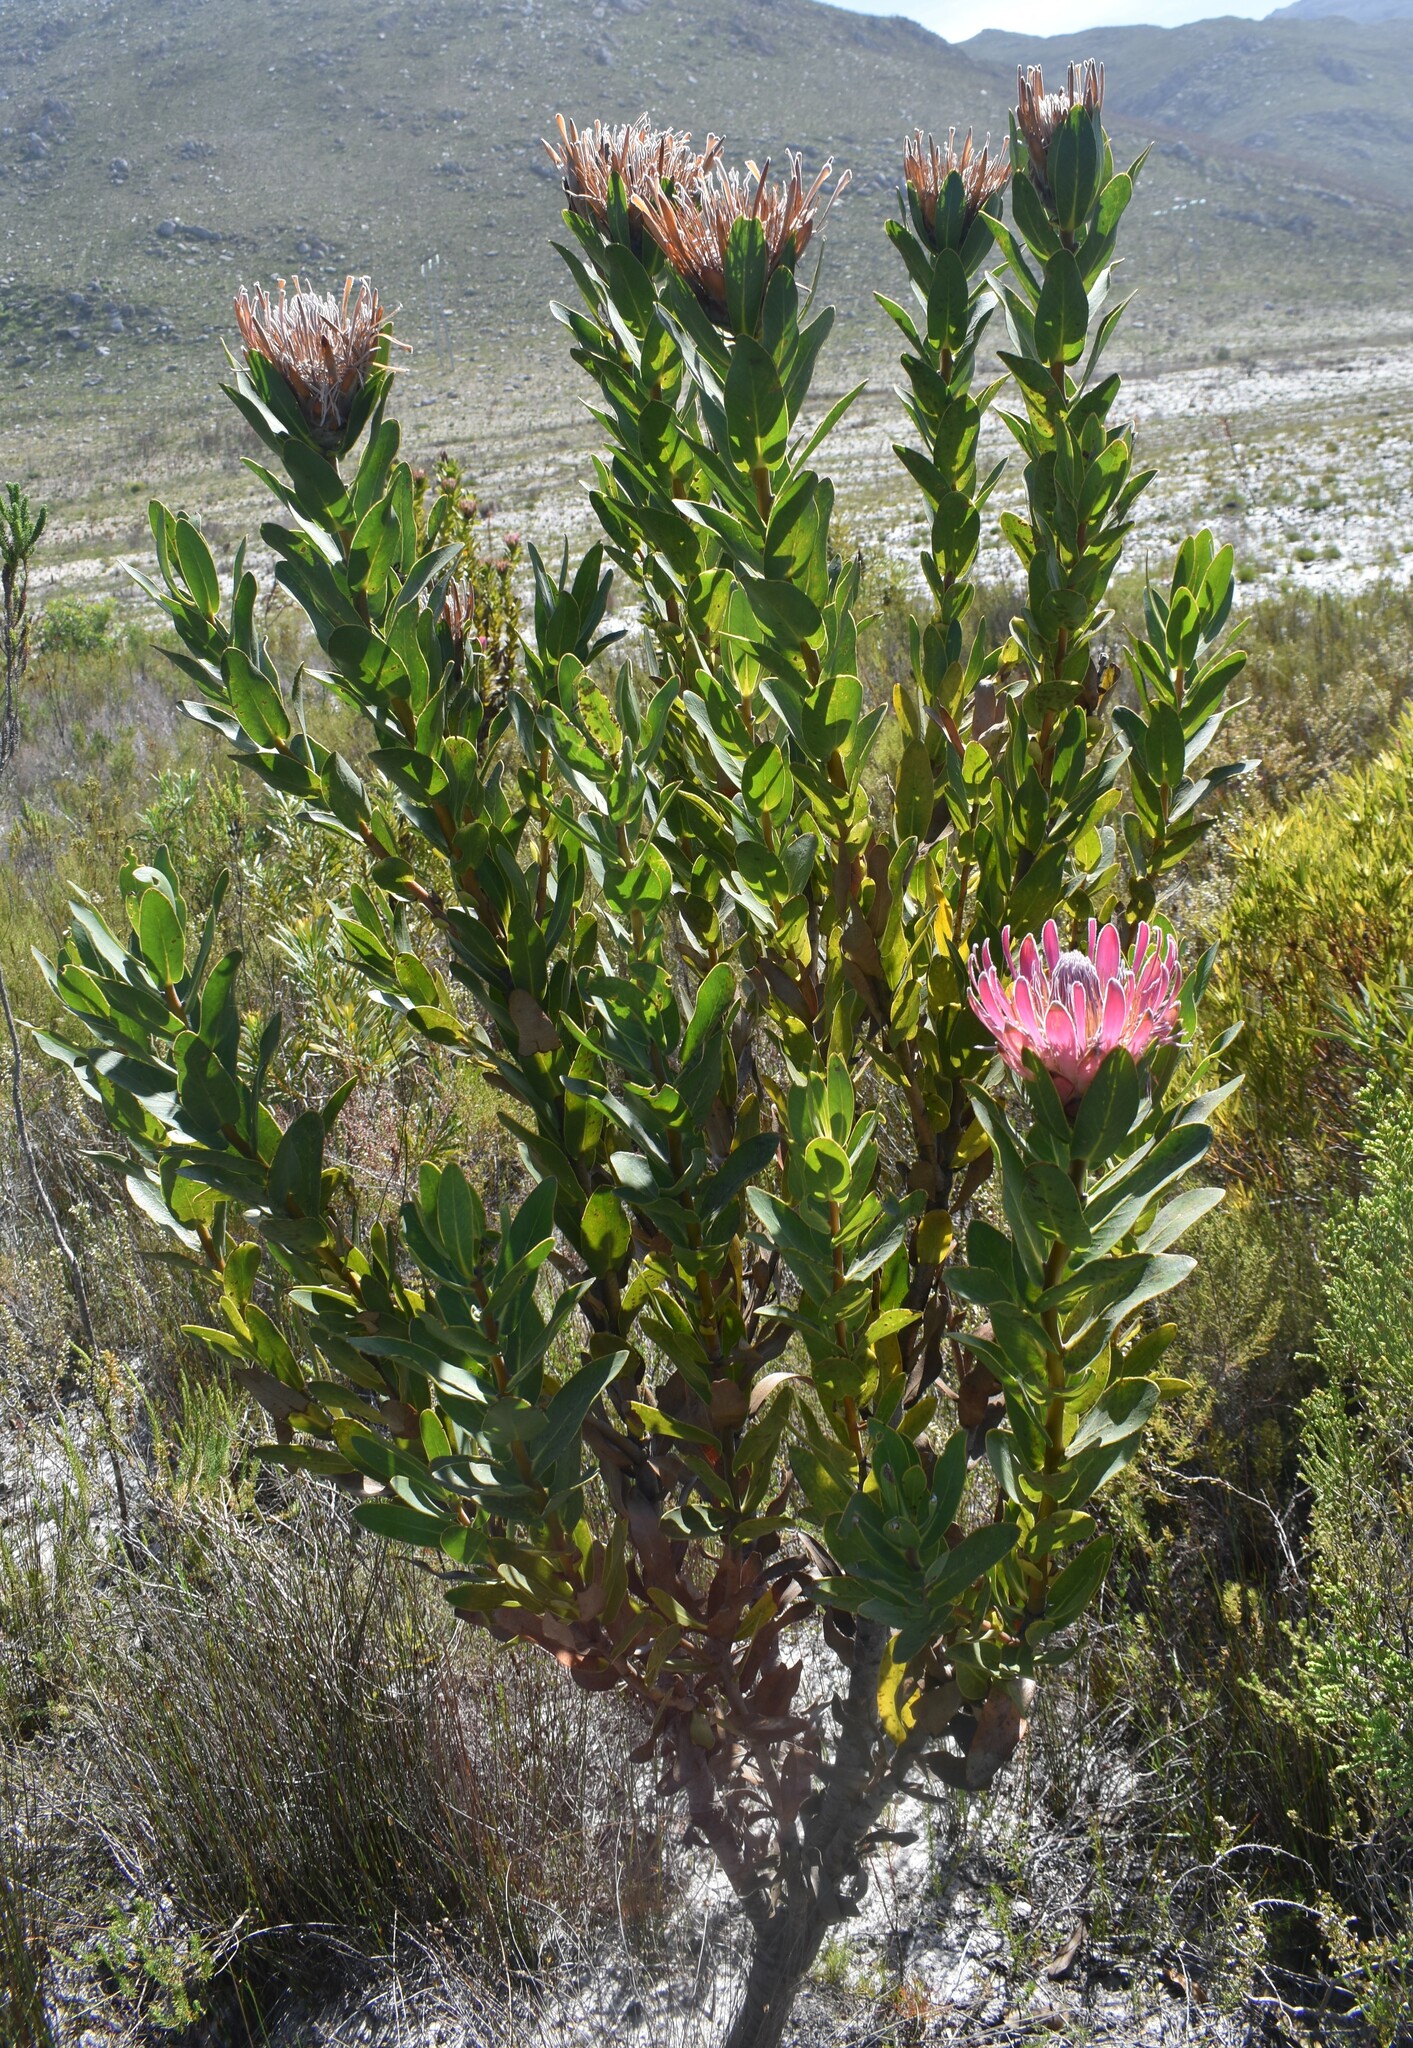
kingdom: Plantae
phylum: Tracheophyta
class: Magnoliopsida
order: Proteales
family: Proteaceae
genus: Protea
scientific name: Protea compacta
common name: Bot river protea
